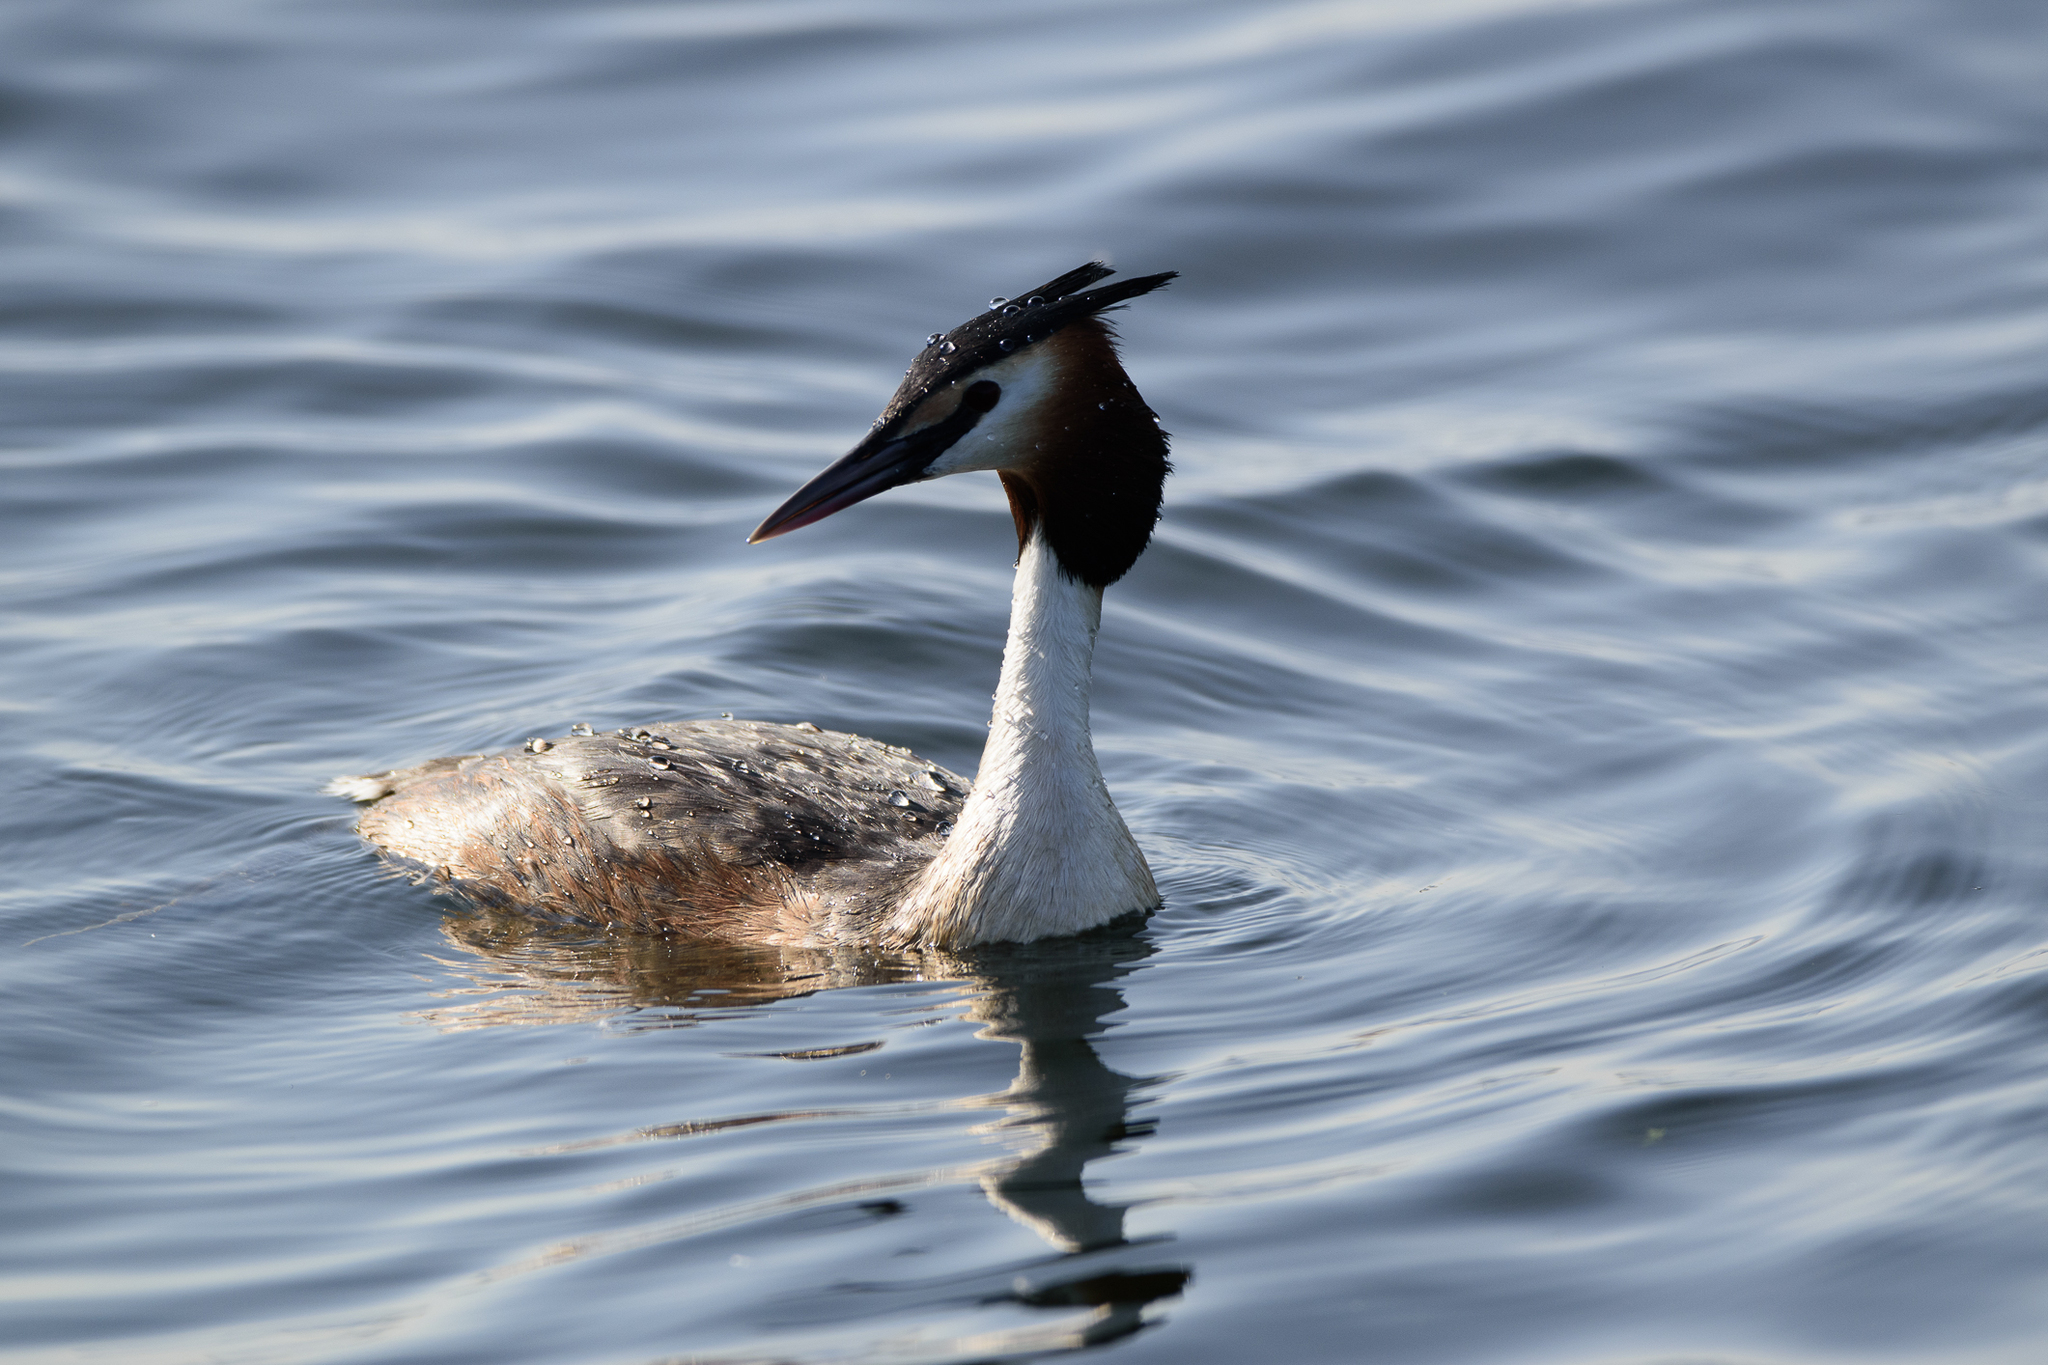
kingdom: Animalia
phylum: Chordata
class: Aves
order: Podicipediformes
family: Podicipedidae
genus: Podiceps
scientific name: Podiceps cristatus
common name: Great crested grebe
